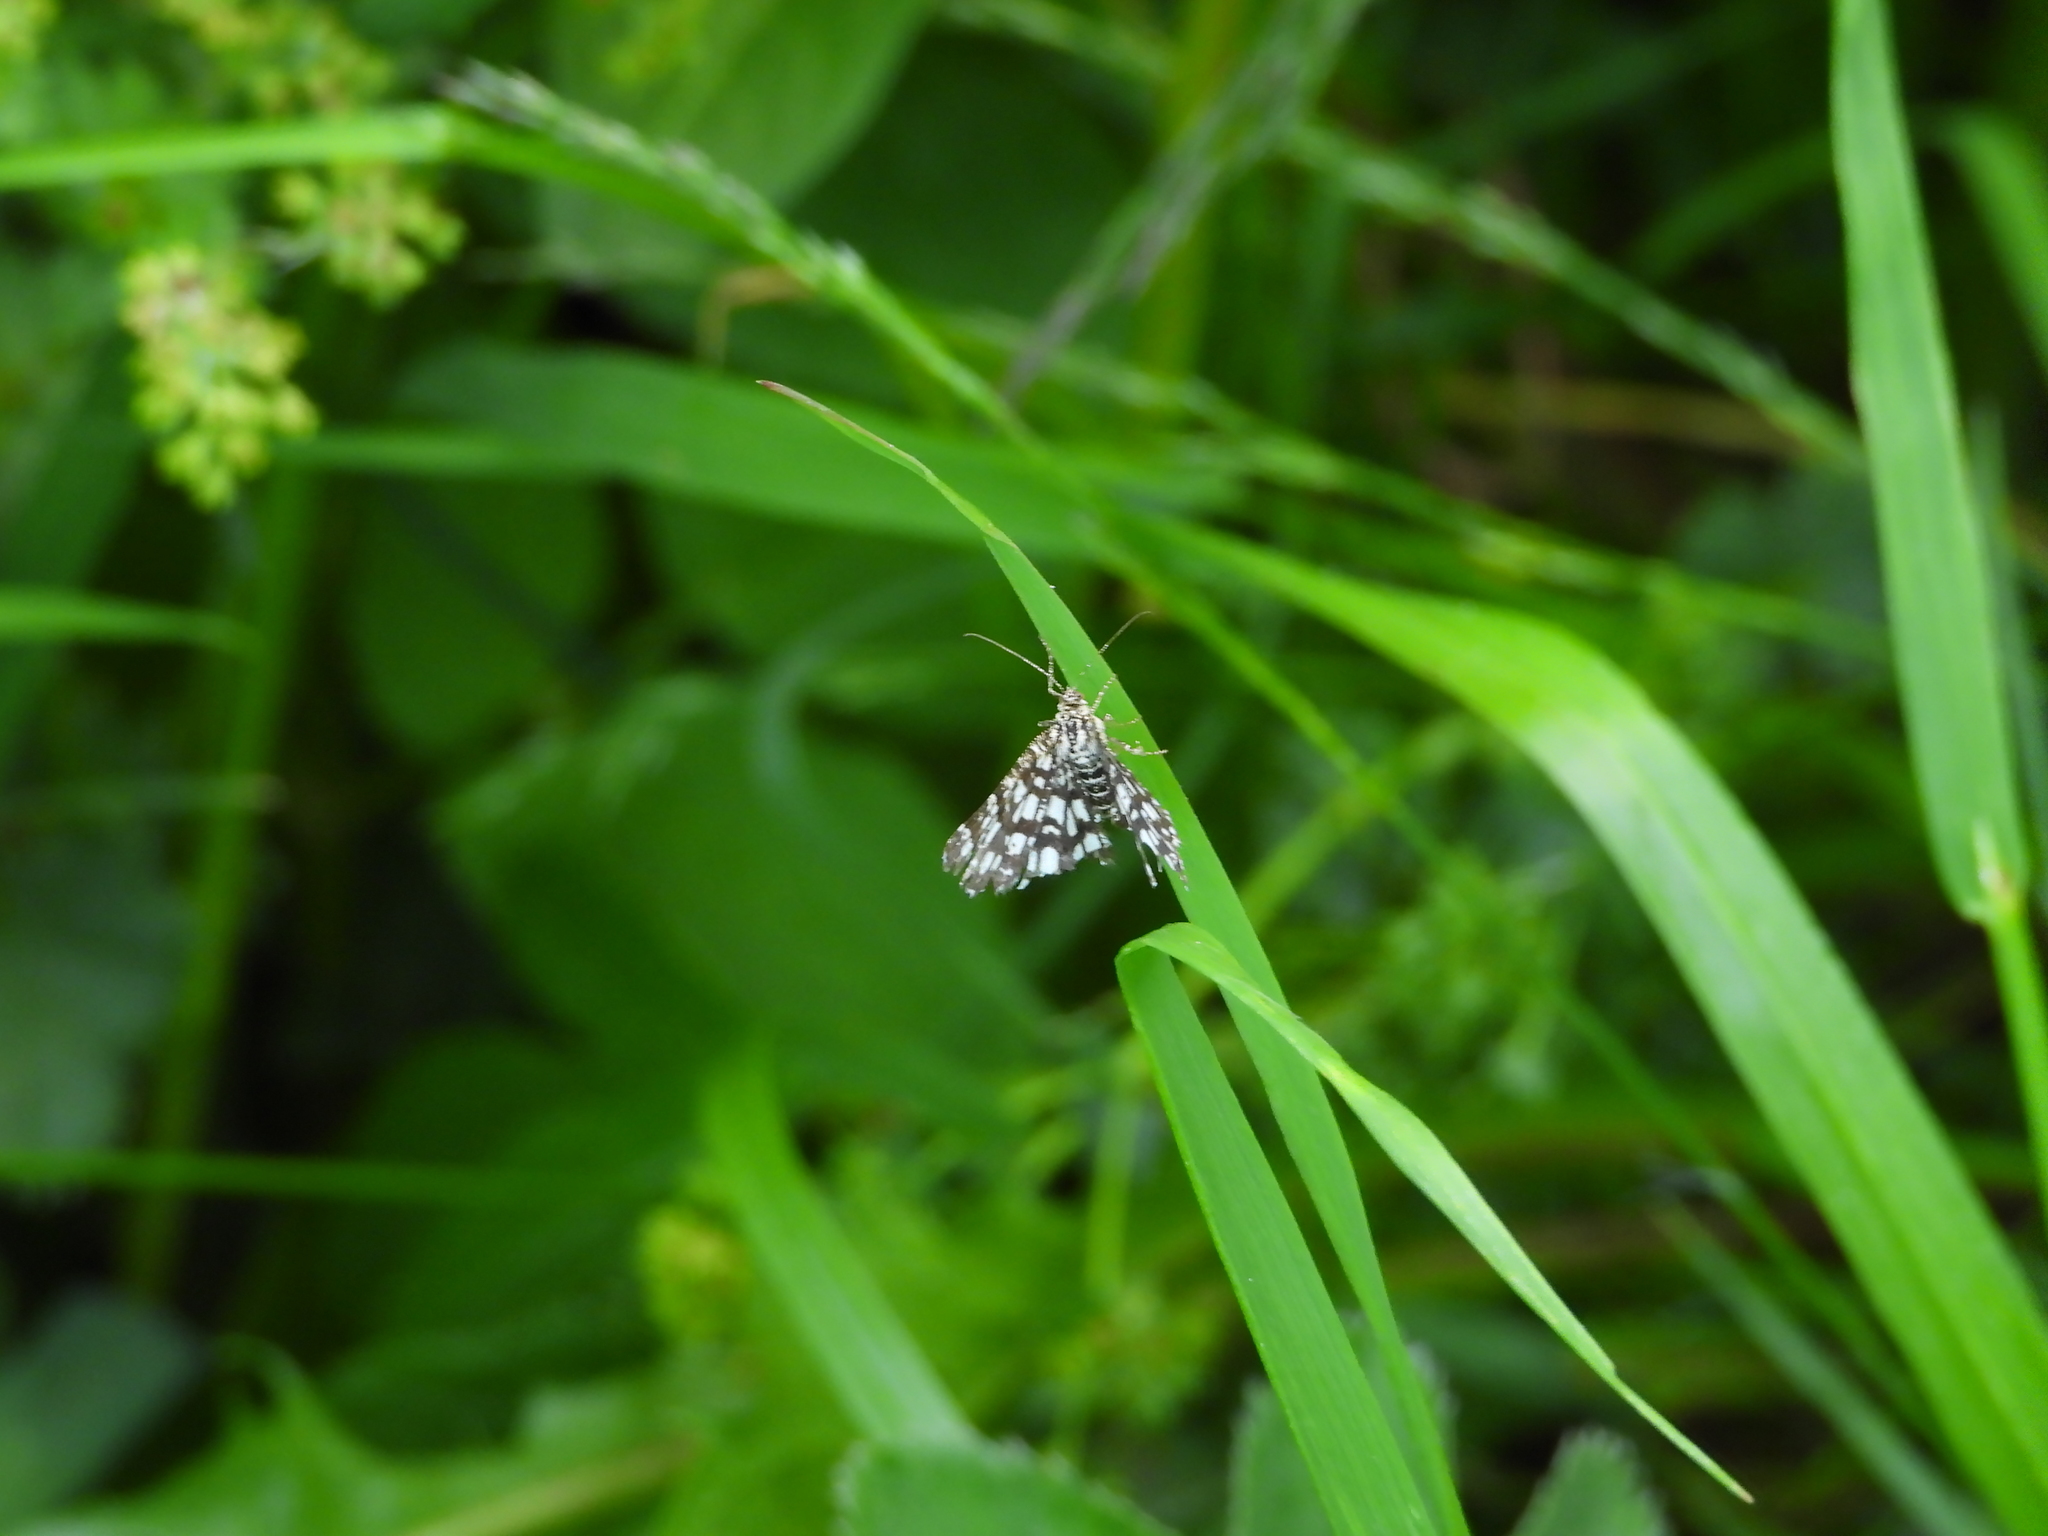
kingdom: Animalia
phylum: Arthropoda
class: Insecta
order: Lepidoptera
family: Geometridae
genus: Chiasmia
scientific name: Chiasmia clathrata
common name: Latticed heath
